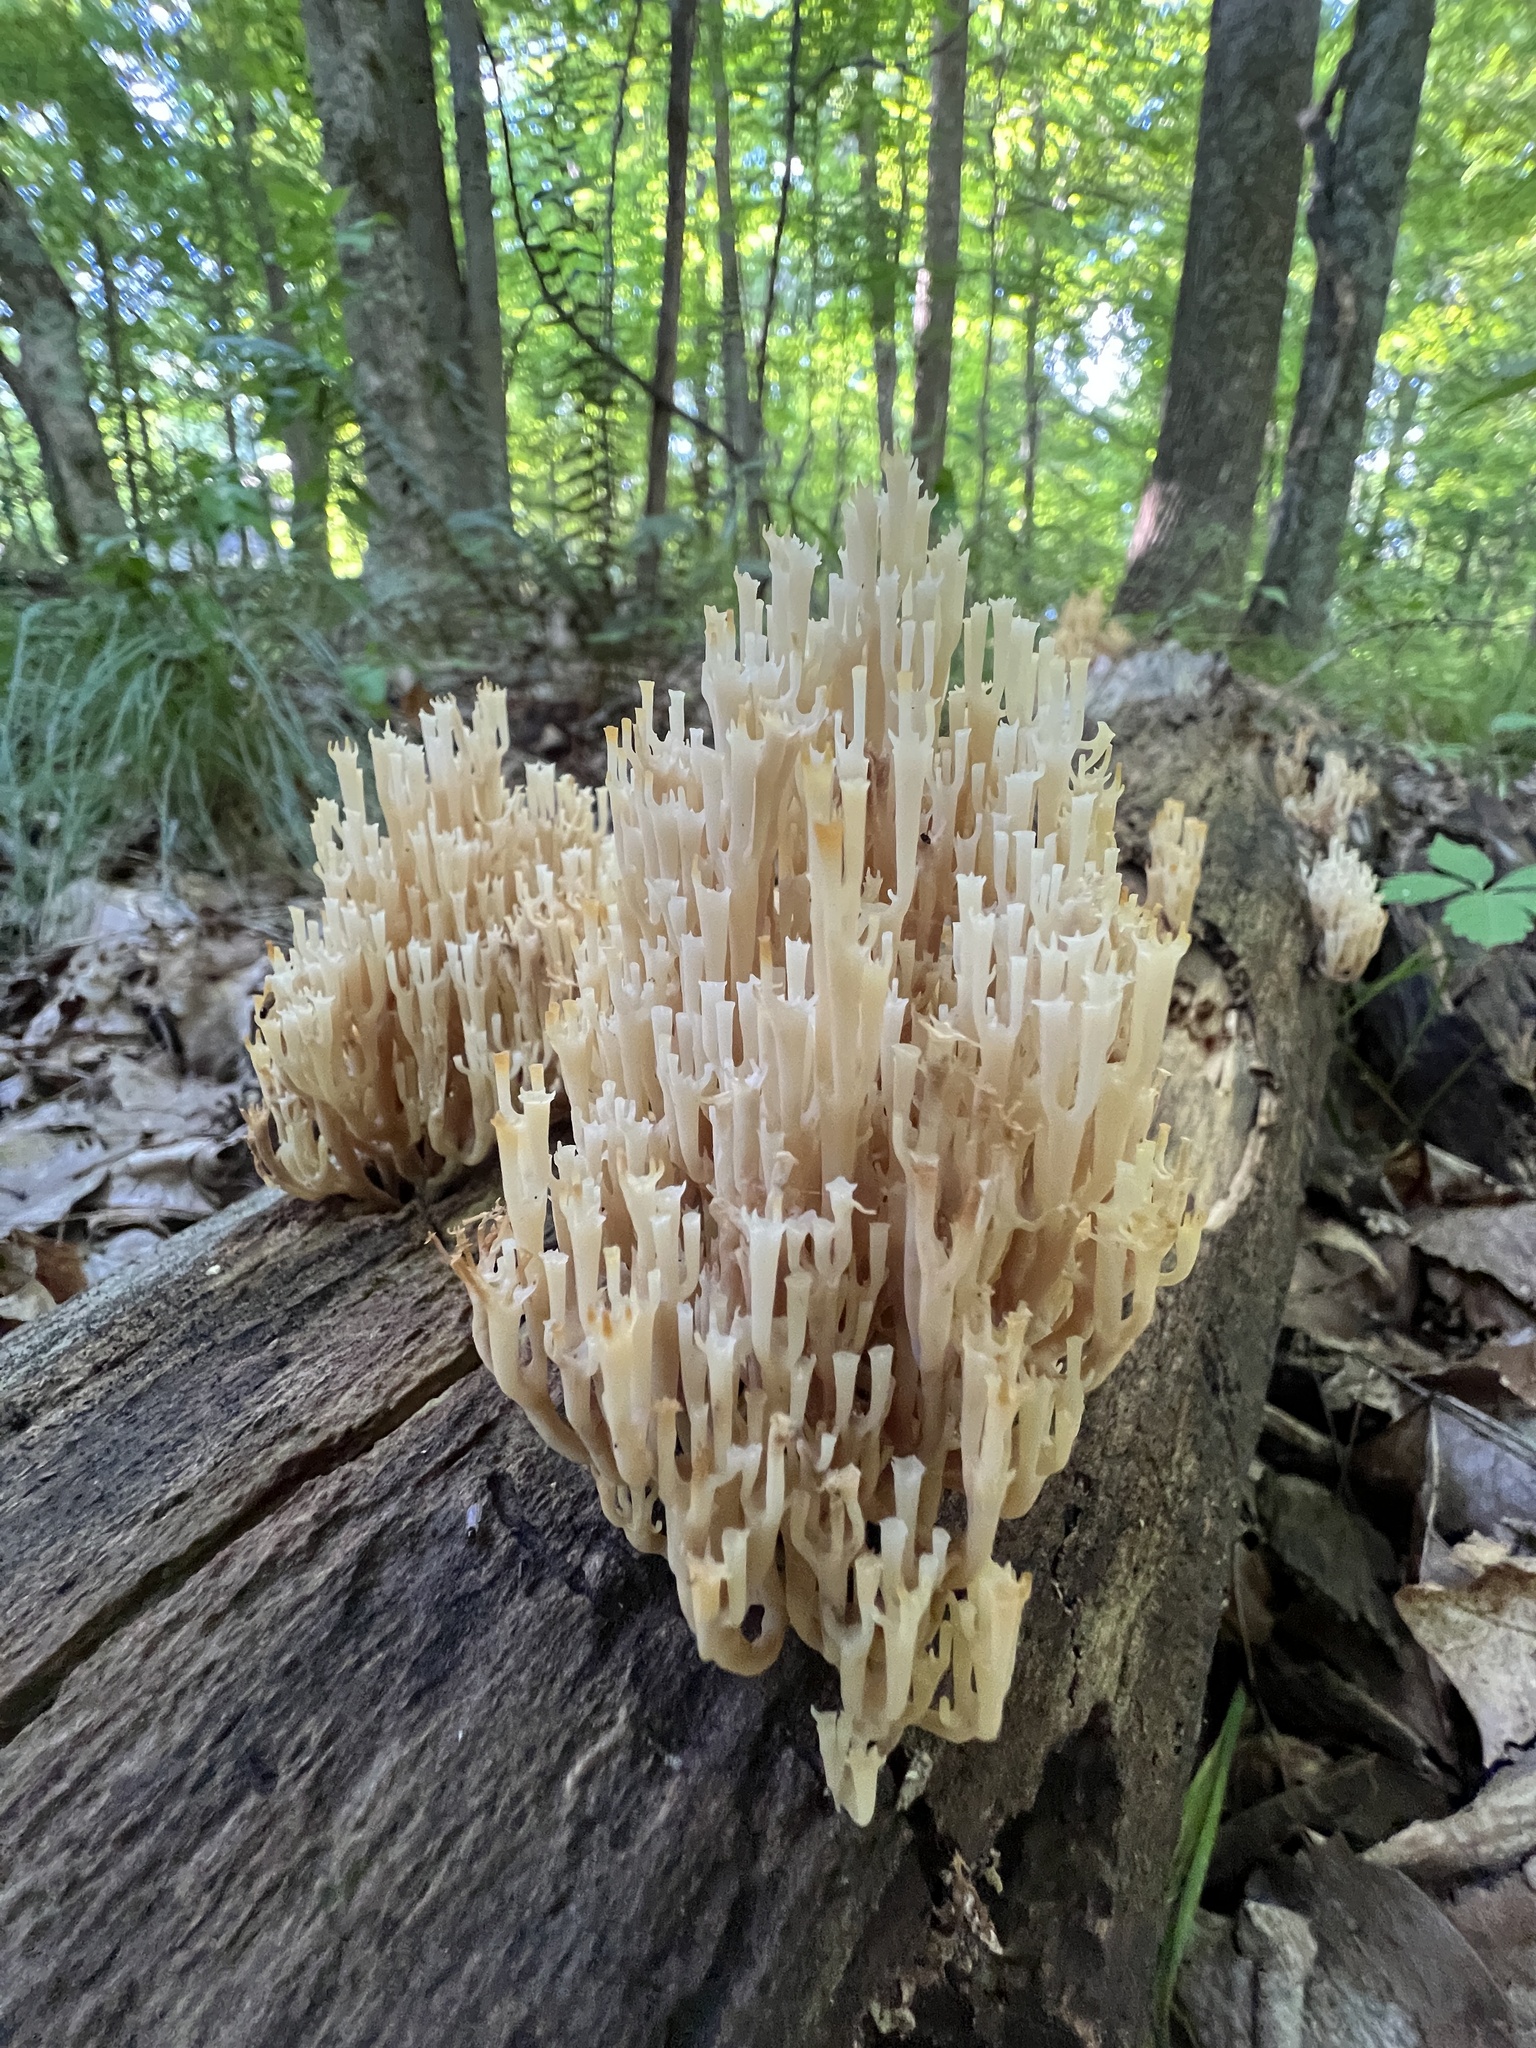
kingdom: Fungi
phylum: Basidiomycota
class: Agaricomycetes
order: Russulales
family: Auriscalpiaceae
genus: Artomyces
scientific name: Artomyces pyxidatus
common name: Crown-tipped coral fungus
